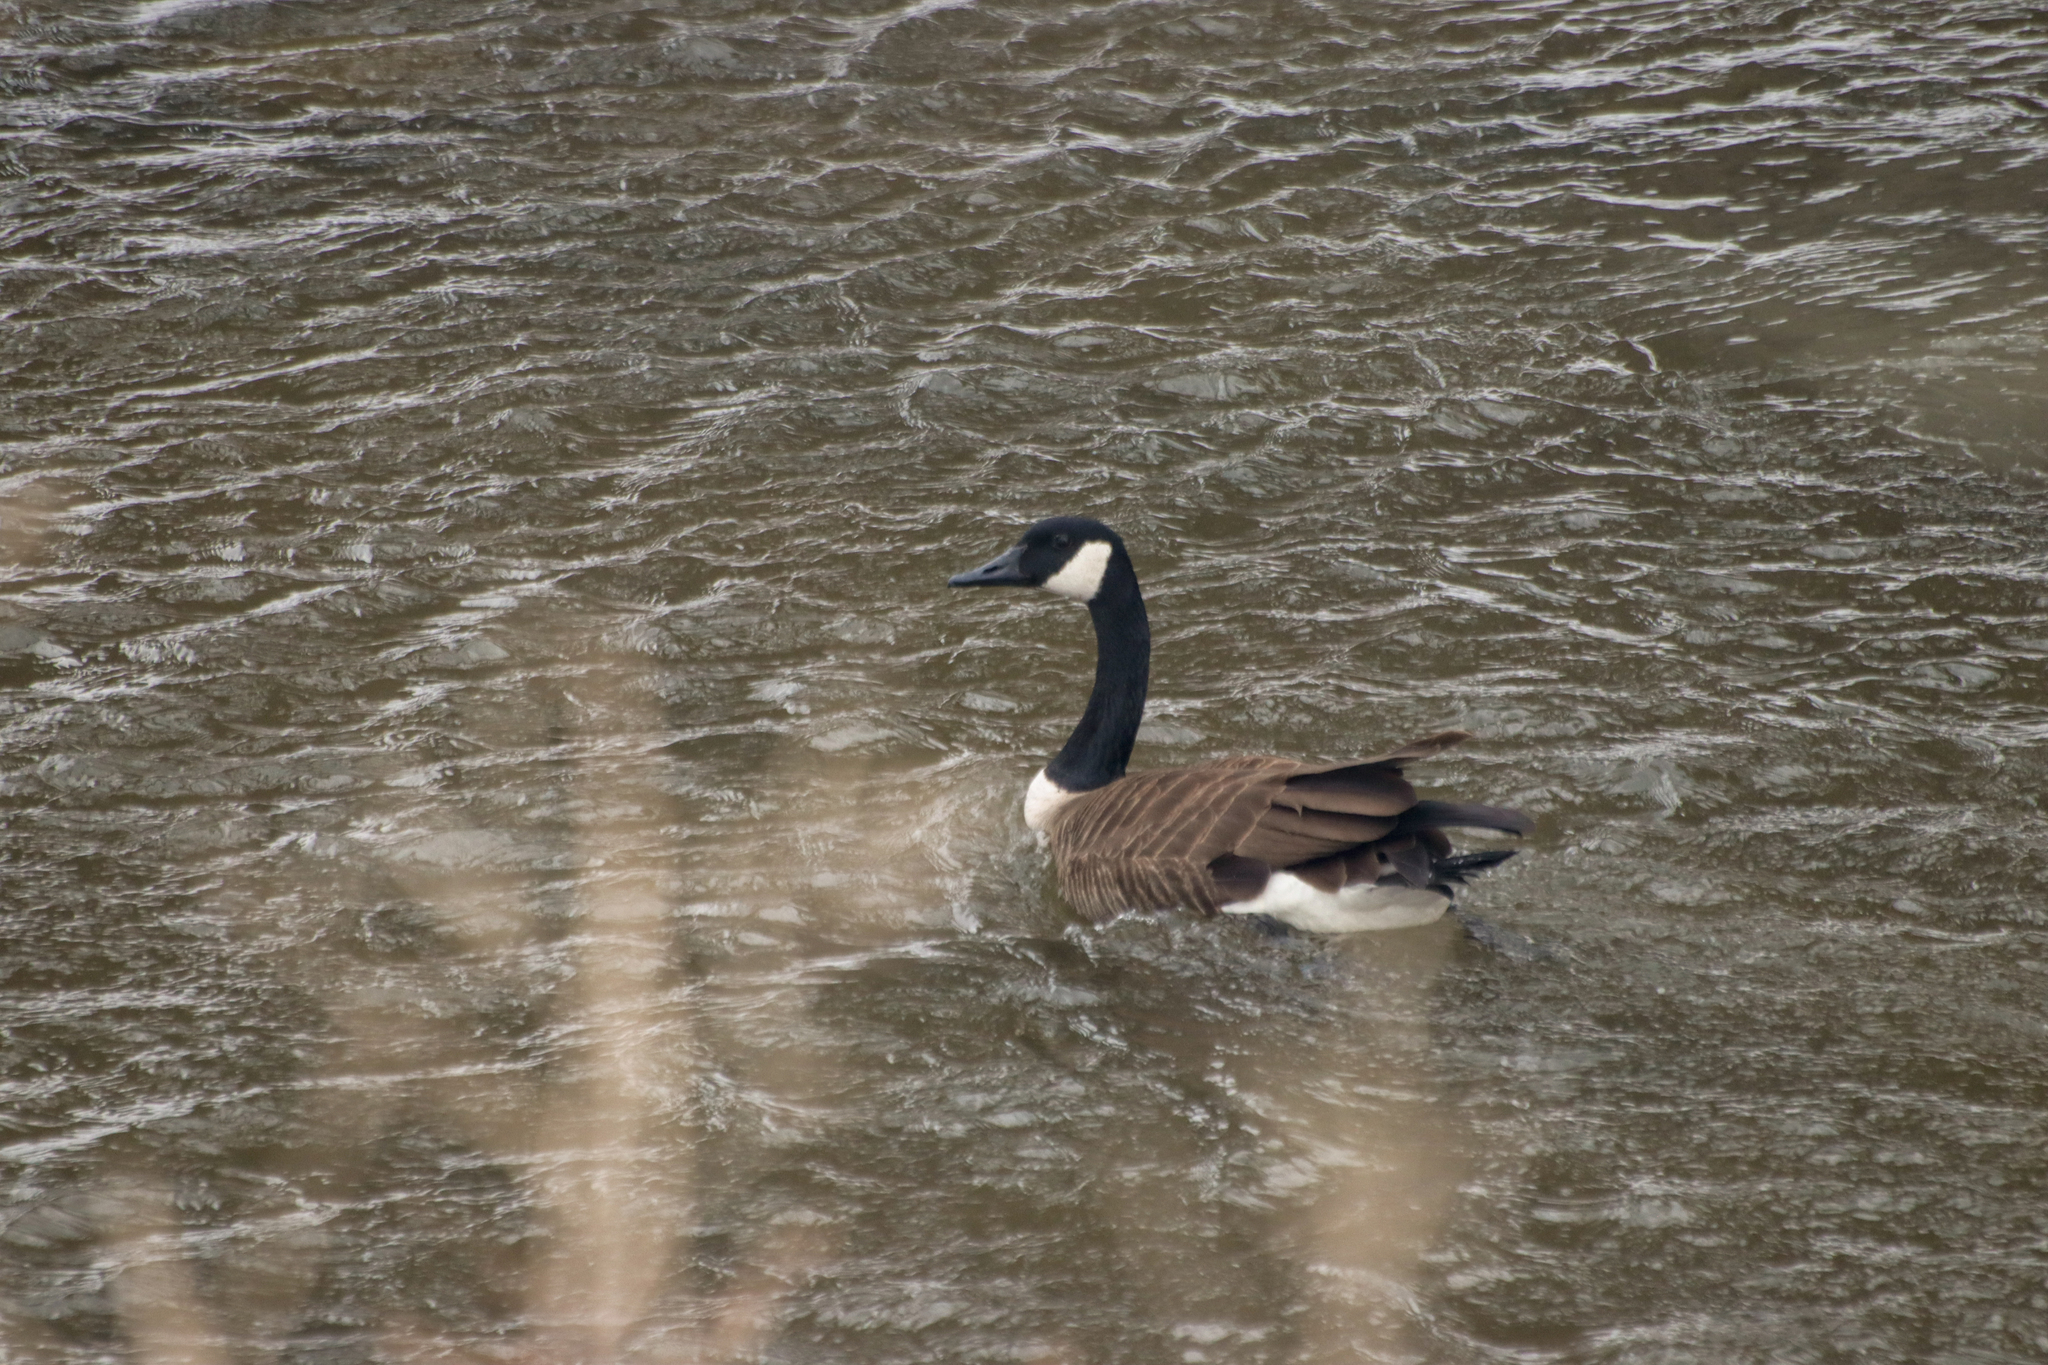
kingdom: Animalia
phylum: Chordata
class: Aves
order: Anseriformes
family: Anatidae
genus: Branta
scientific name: Branta canadensis
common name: Canada goose
